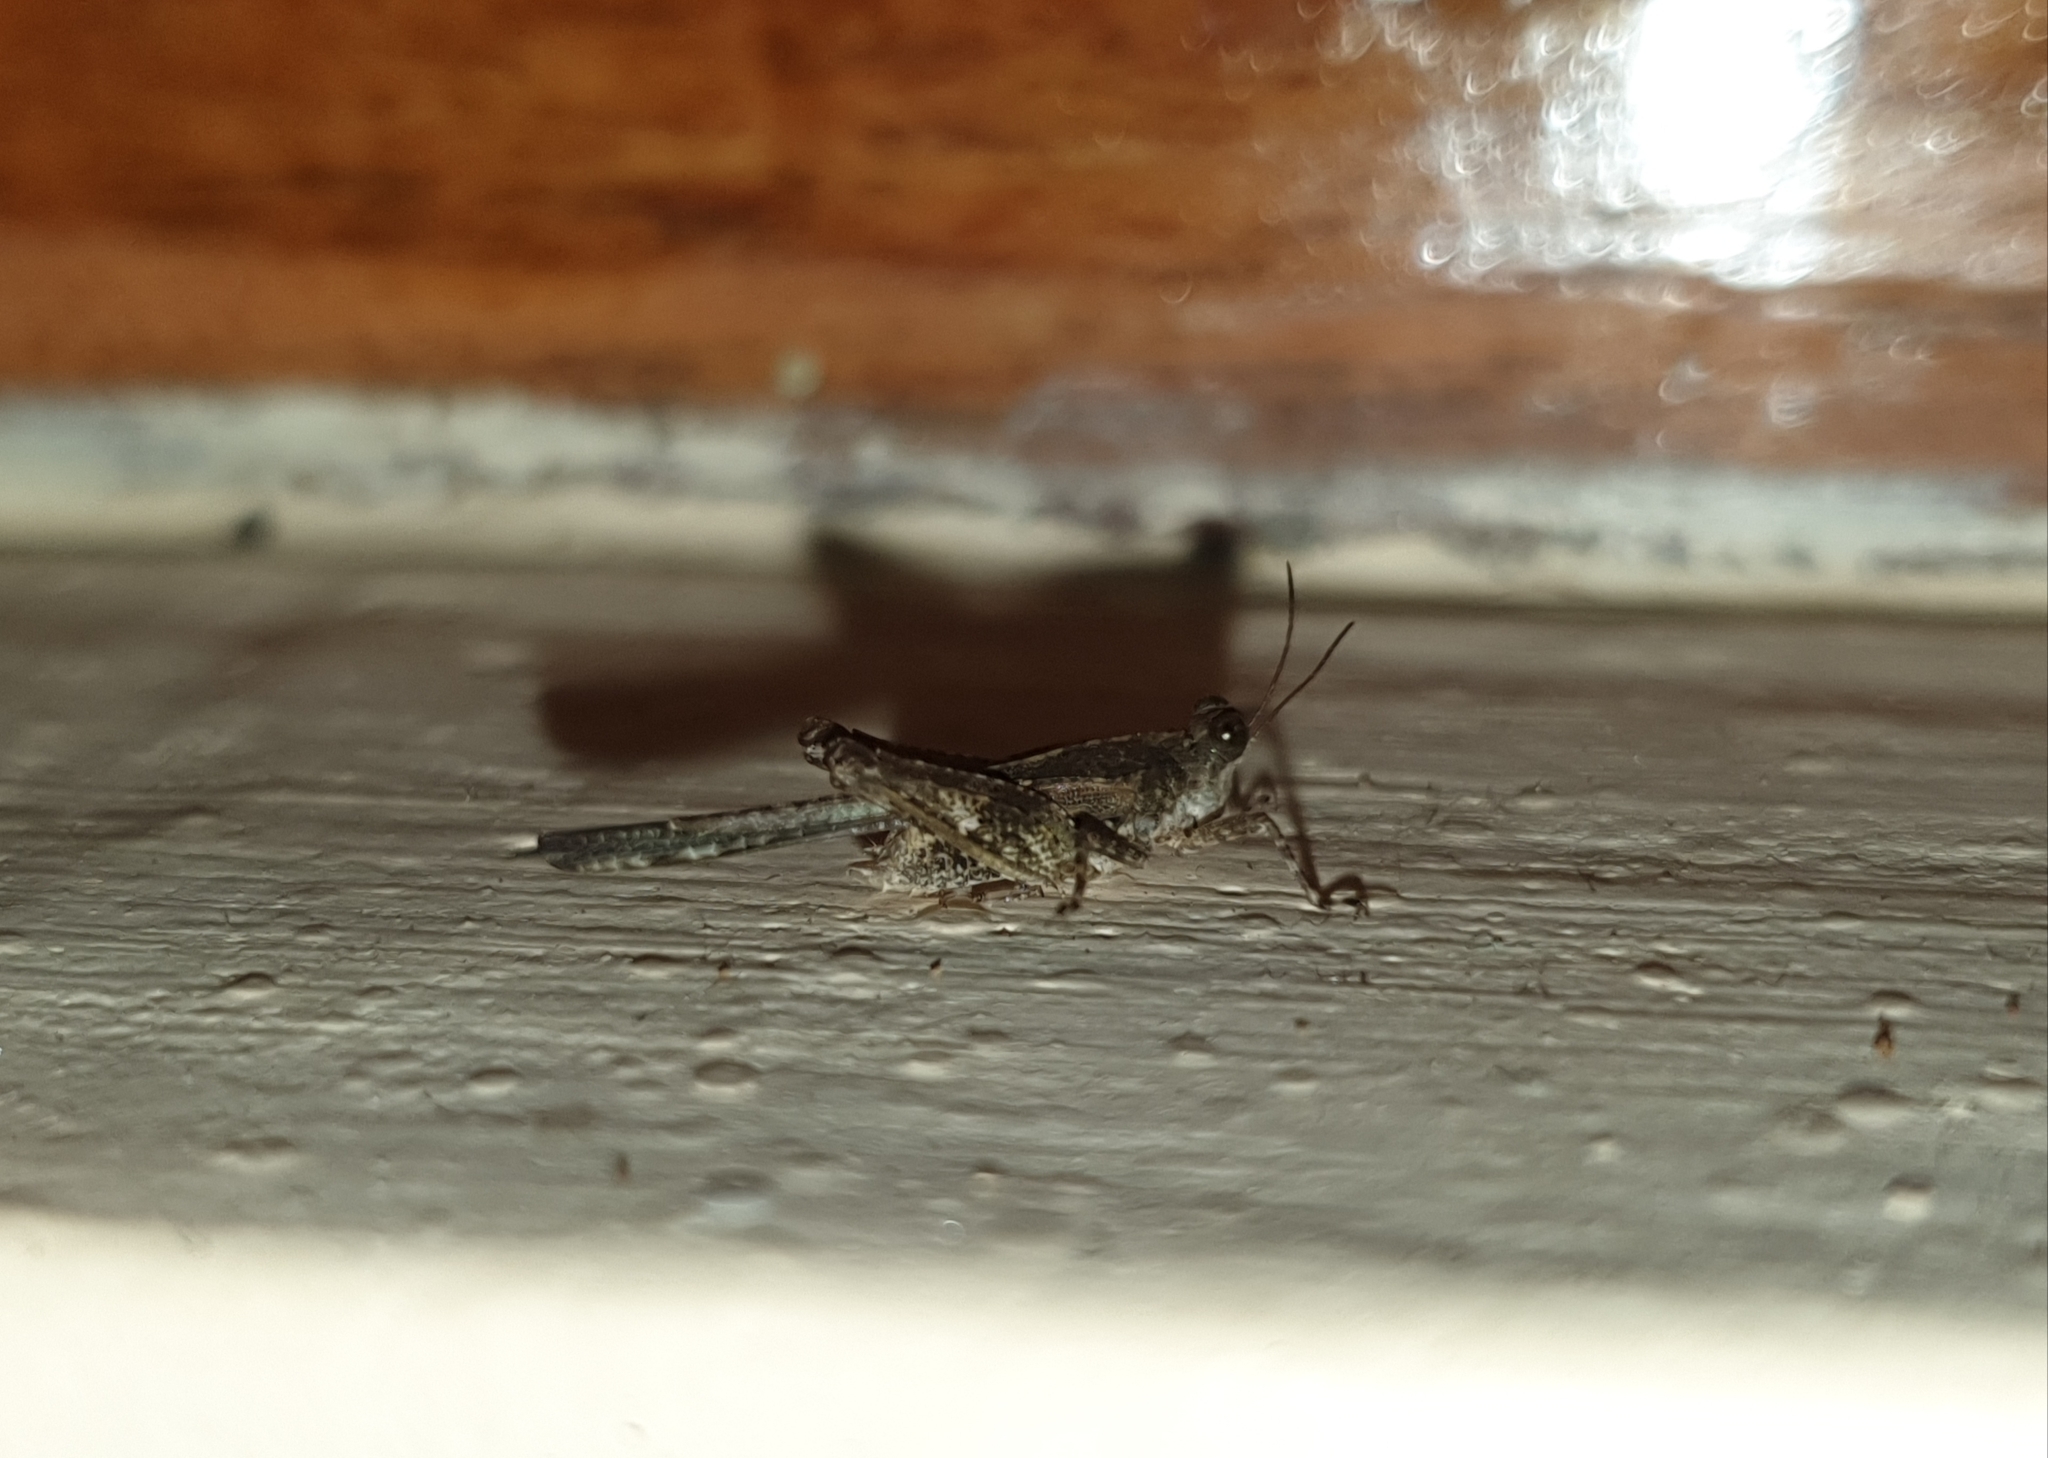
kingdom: Animalia
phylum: Arthropoda
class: Insecta
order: Orthoptera
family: Tetrigidae
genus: Euparatettix
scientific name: Euparatettix personatus
